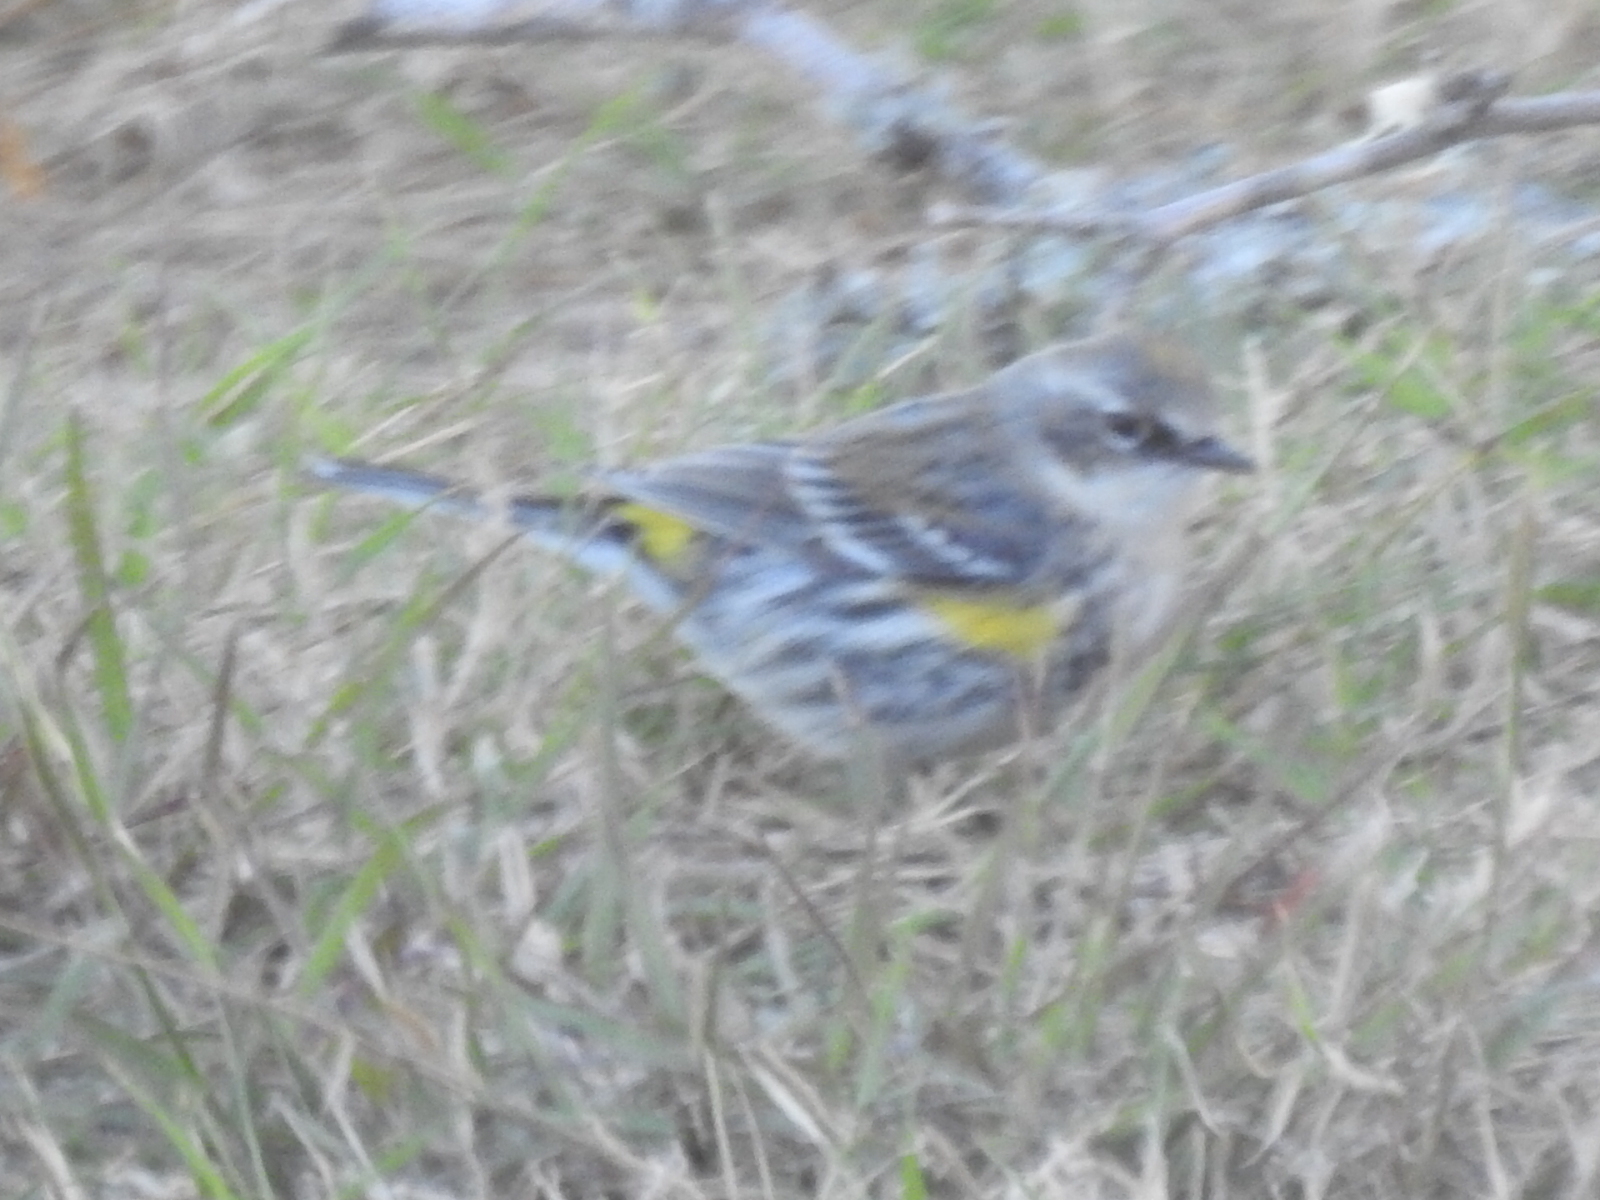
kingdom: Animalia
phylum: Chordata
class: Aves
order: Passeriformes
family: Parulidae
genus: Setophaga
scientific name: Setophaga coronata
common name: Myrtle warbler
